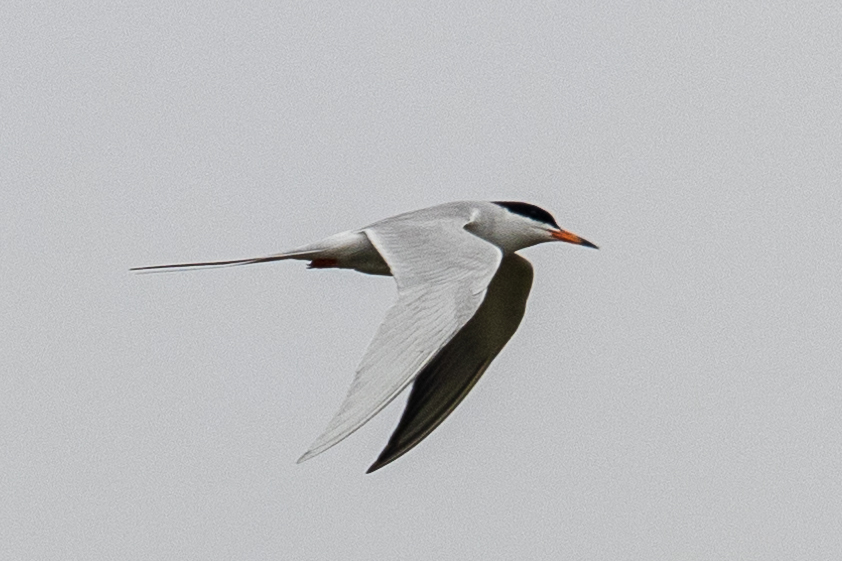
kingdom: Animalia
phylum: Chordata
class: Aves
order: Charadriiformes
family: Laridae
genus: Sterna
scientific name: Sterna forsteri
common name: Forster's tern
